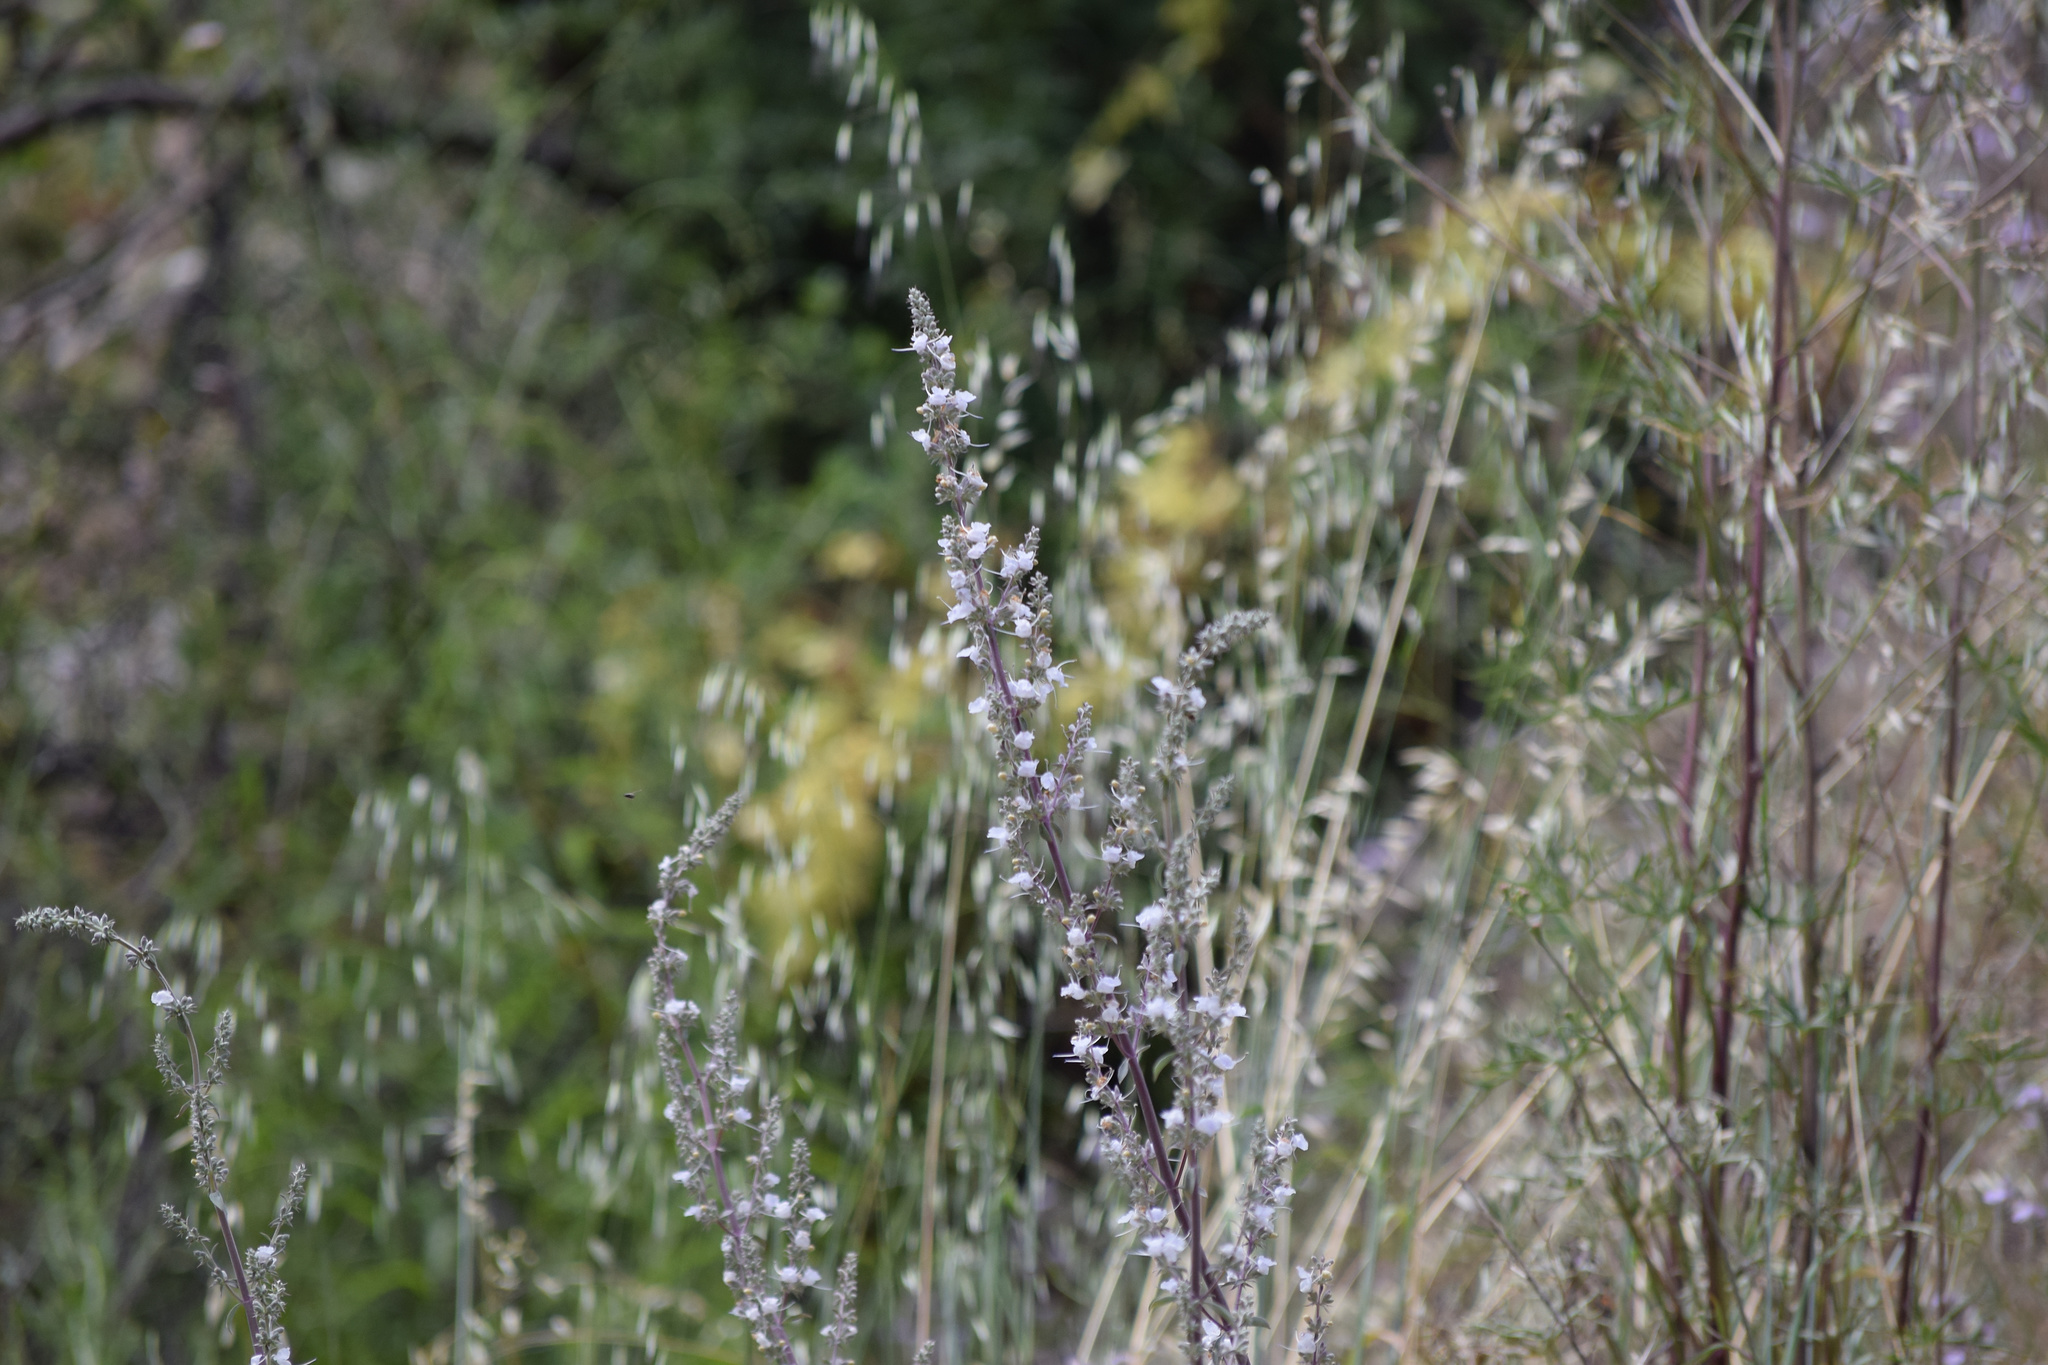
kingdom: Plantae
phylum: Tracheophyta
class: Magnoliopsida
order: Lamiales
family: Lamiaceae
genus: Salvia
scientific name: Salvia apiana
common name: White sage
